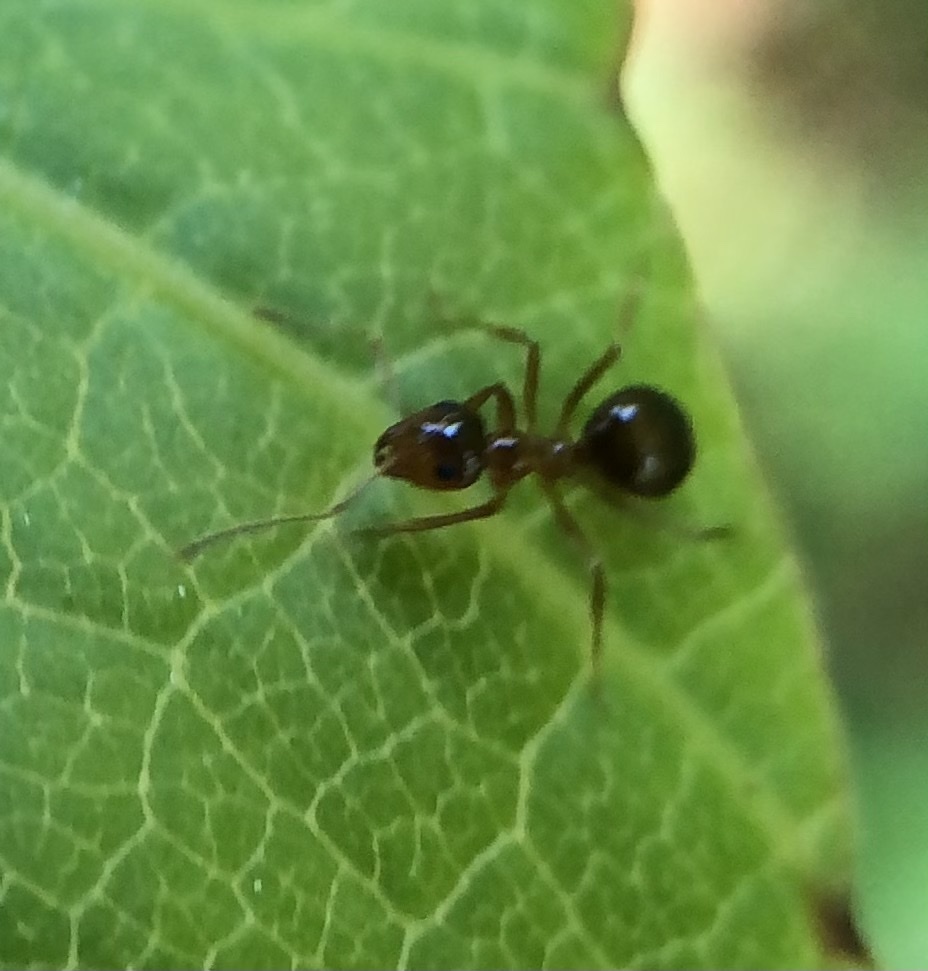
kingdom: Animalia
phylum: Arthropoda
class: Insecta
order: Hymenoptera
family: Formicidae
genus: Prenolepis
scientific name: Prenolepis imparis
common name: Small honey ant
